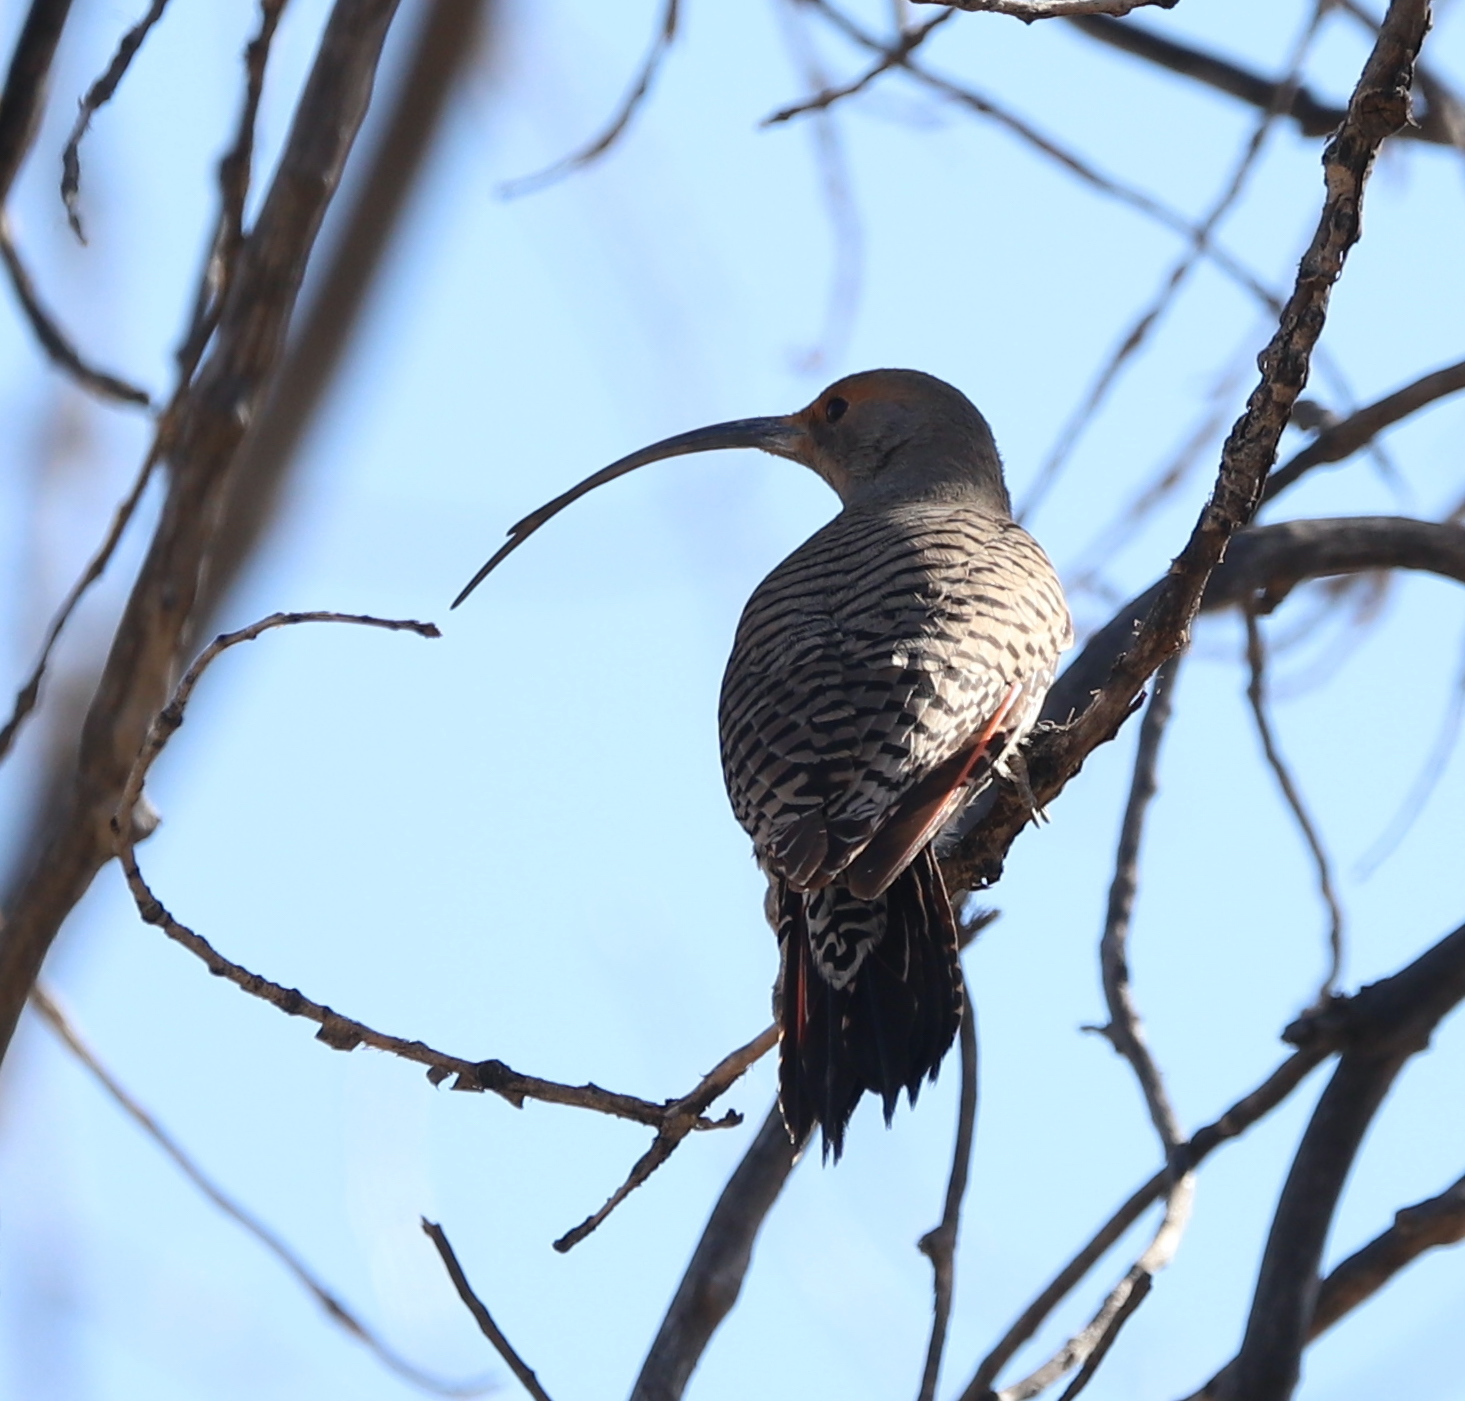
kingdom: Animalia
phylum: Chordata
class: Aves
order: Piciformes
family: Picidae
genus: Colaptes
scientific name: Colaptes auratus
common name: Northern flicker
